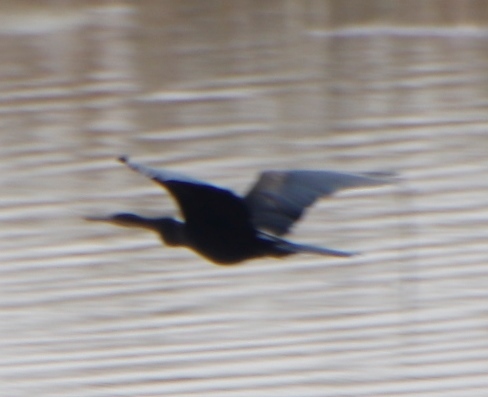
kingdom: Animalia
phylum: Chordata
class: Aves
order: Suliformes
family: Anhingidae
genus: Anhinga
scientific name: Anhinga rufa
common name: African darter
